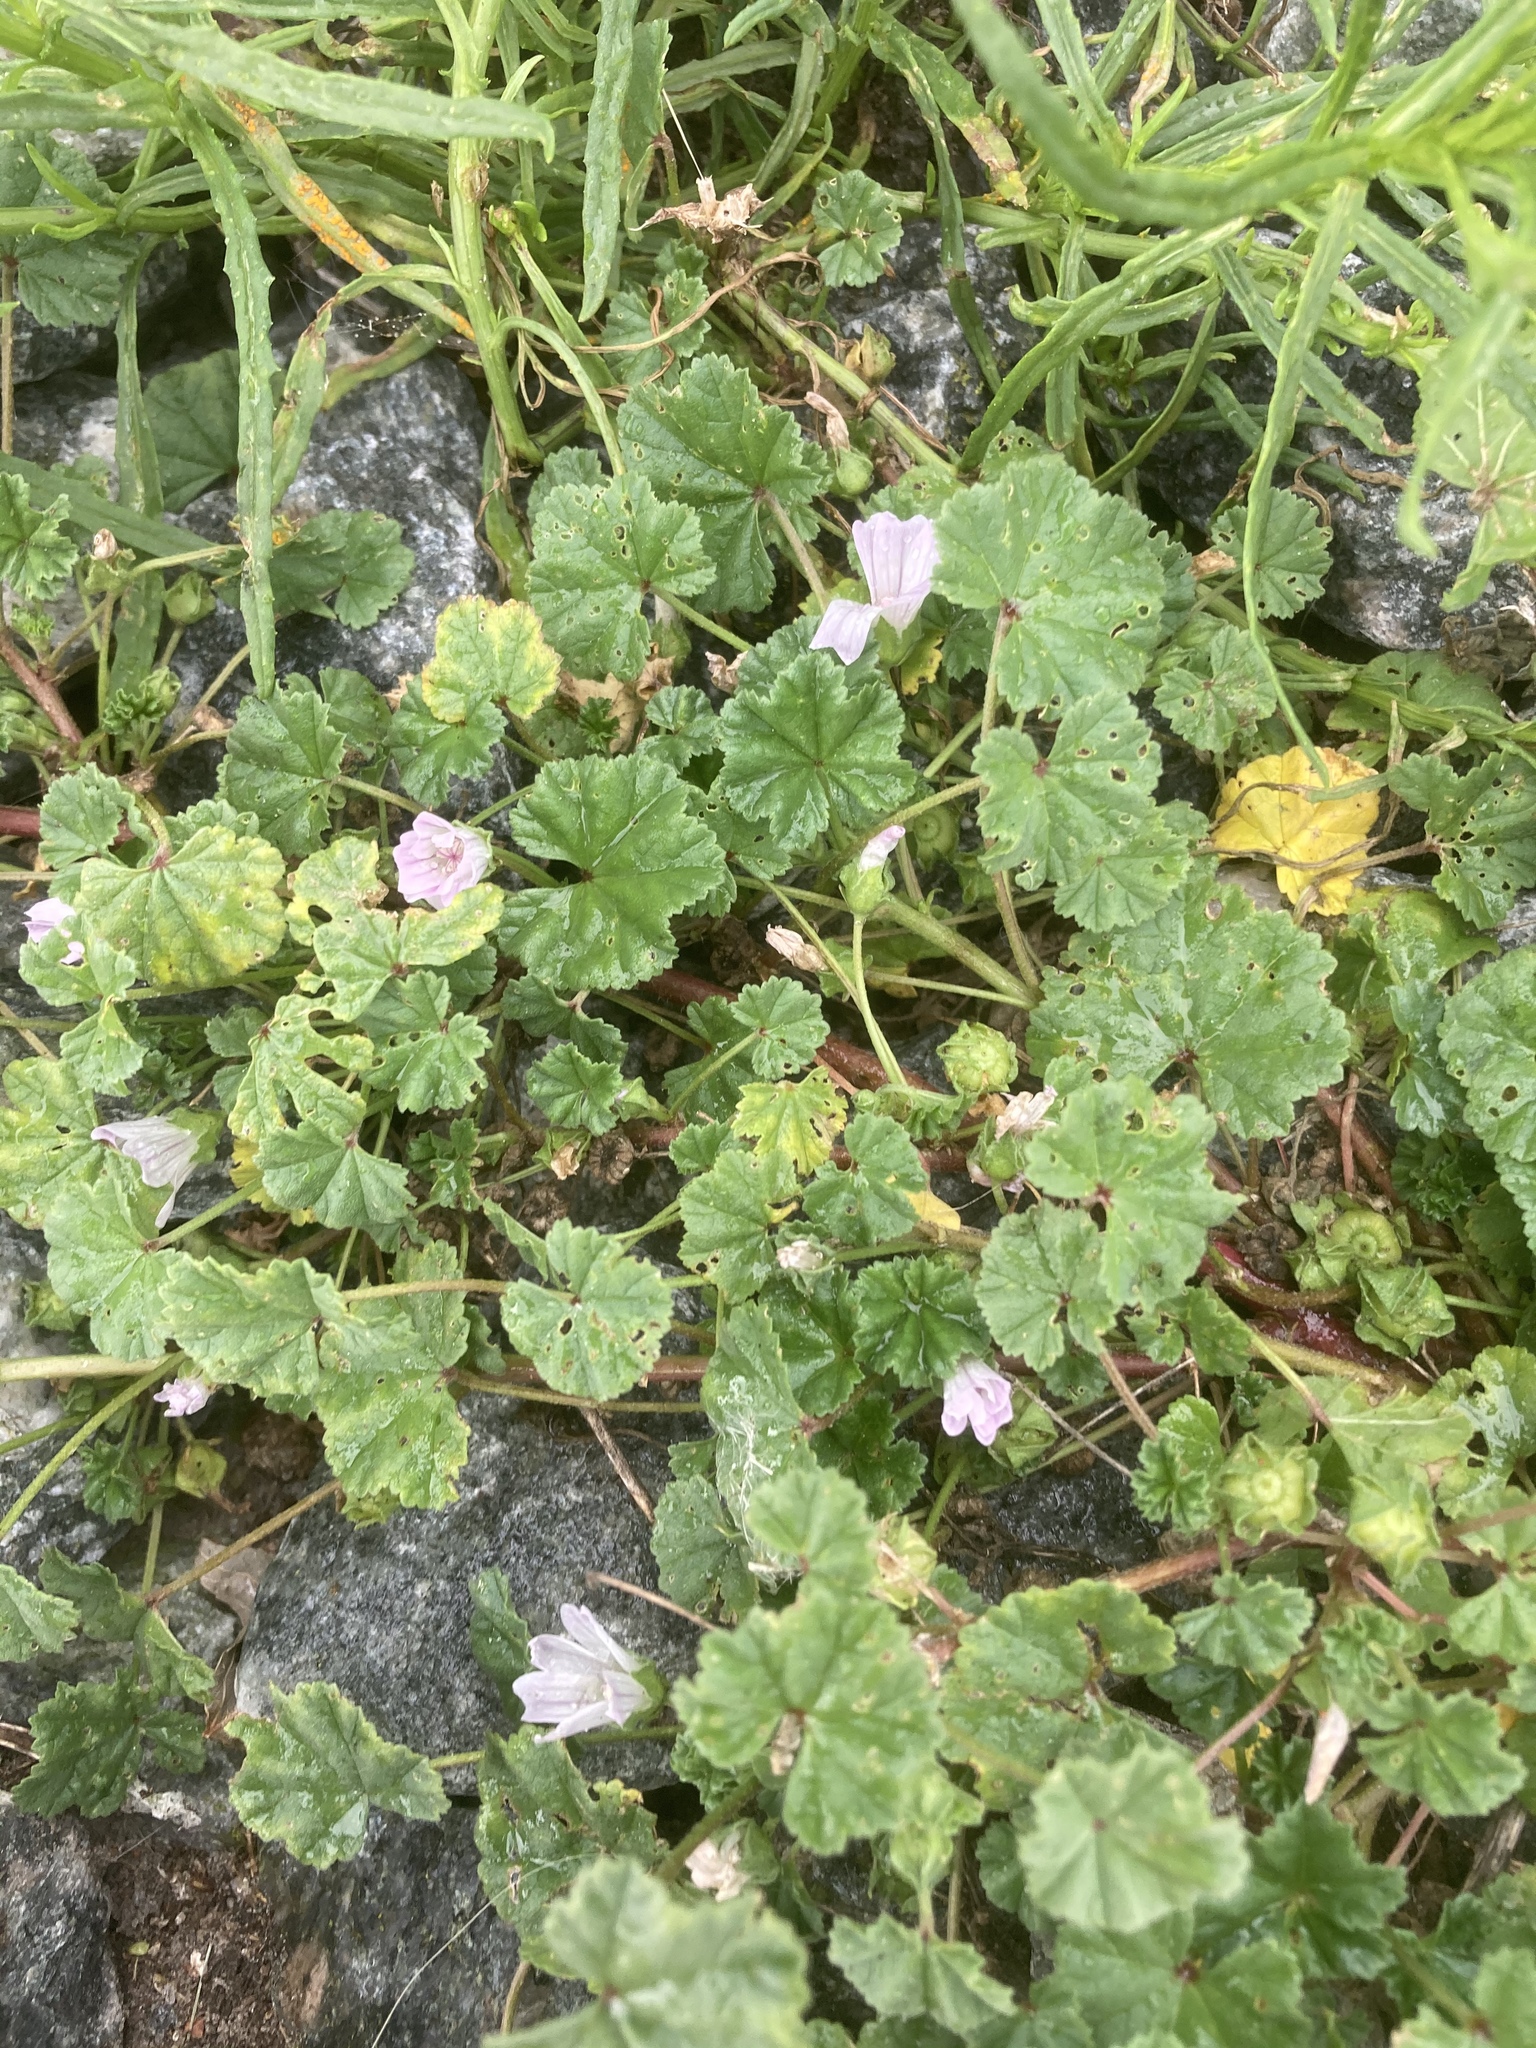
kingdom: Plantae
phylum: Tracheophyta
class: Magnoliopsida
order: Malvales
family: Malvaceae
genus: Malva
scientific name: Malva neglecta
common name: Common mallow
